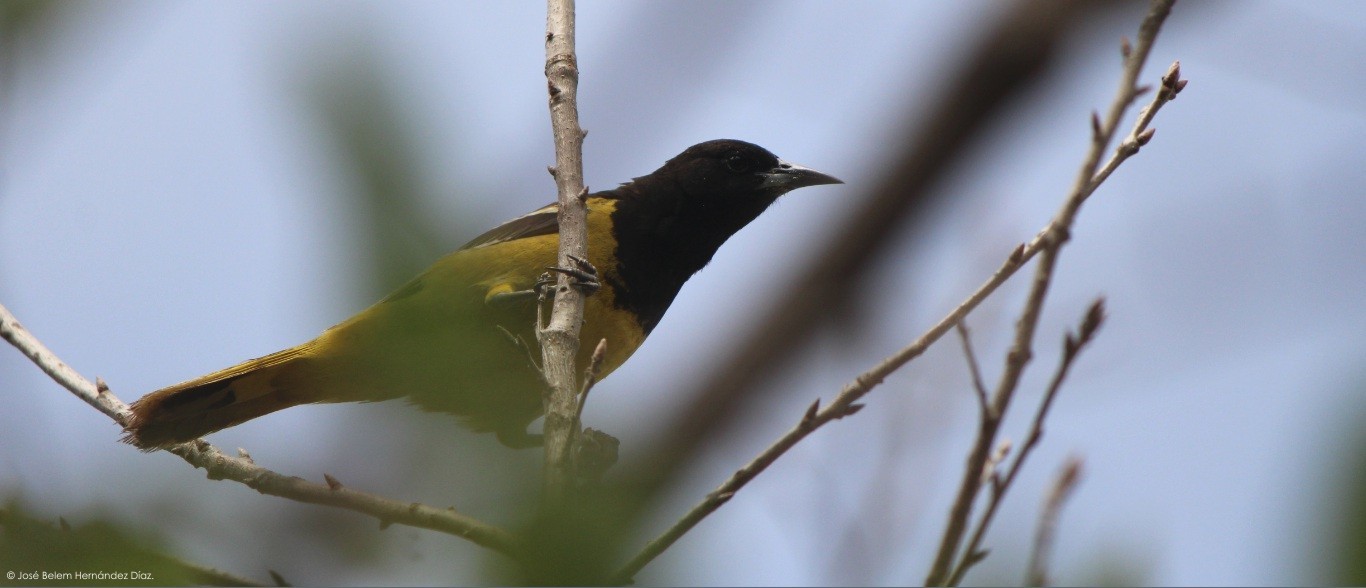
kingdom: Animalia
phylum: Chordata
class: Aves
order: Passeriformes
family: Icteridae
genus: Icterus
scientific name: Icterus parisorum
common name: Scott's oriole
